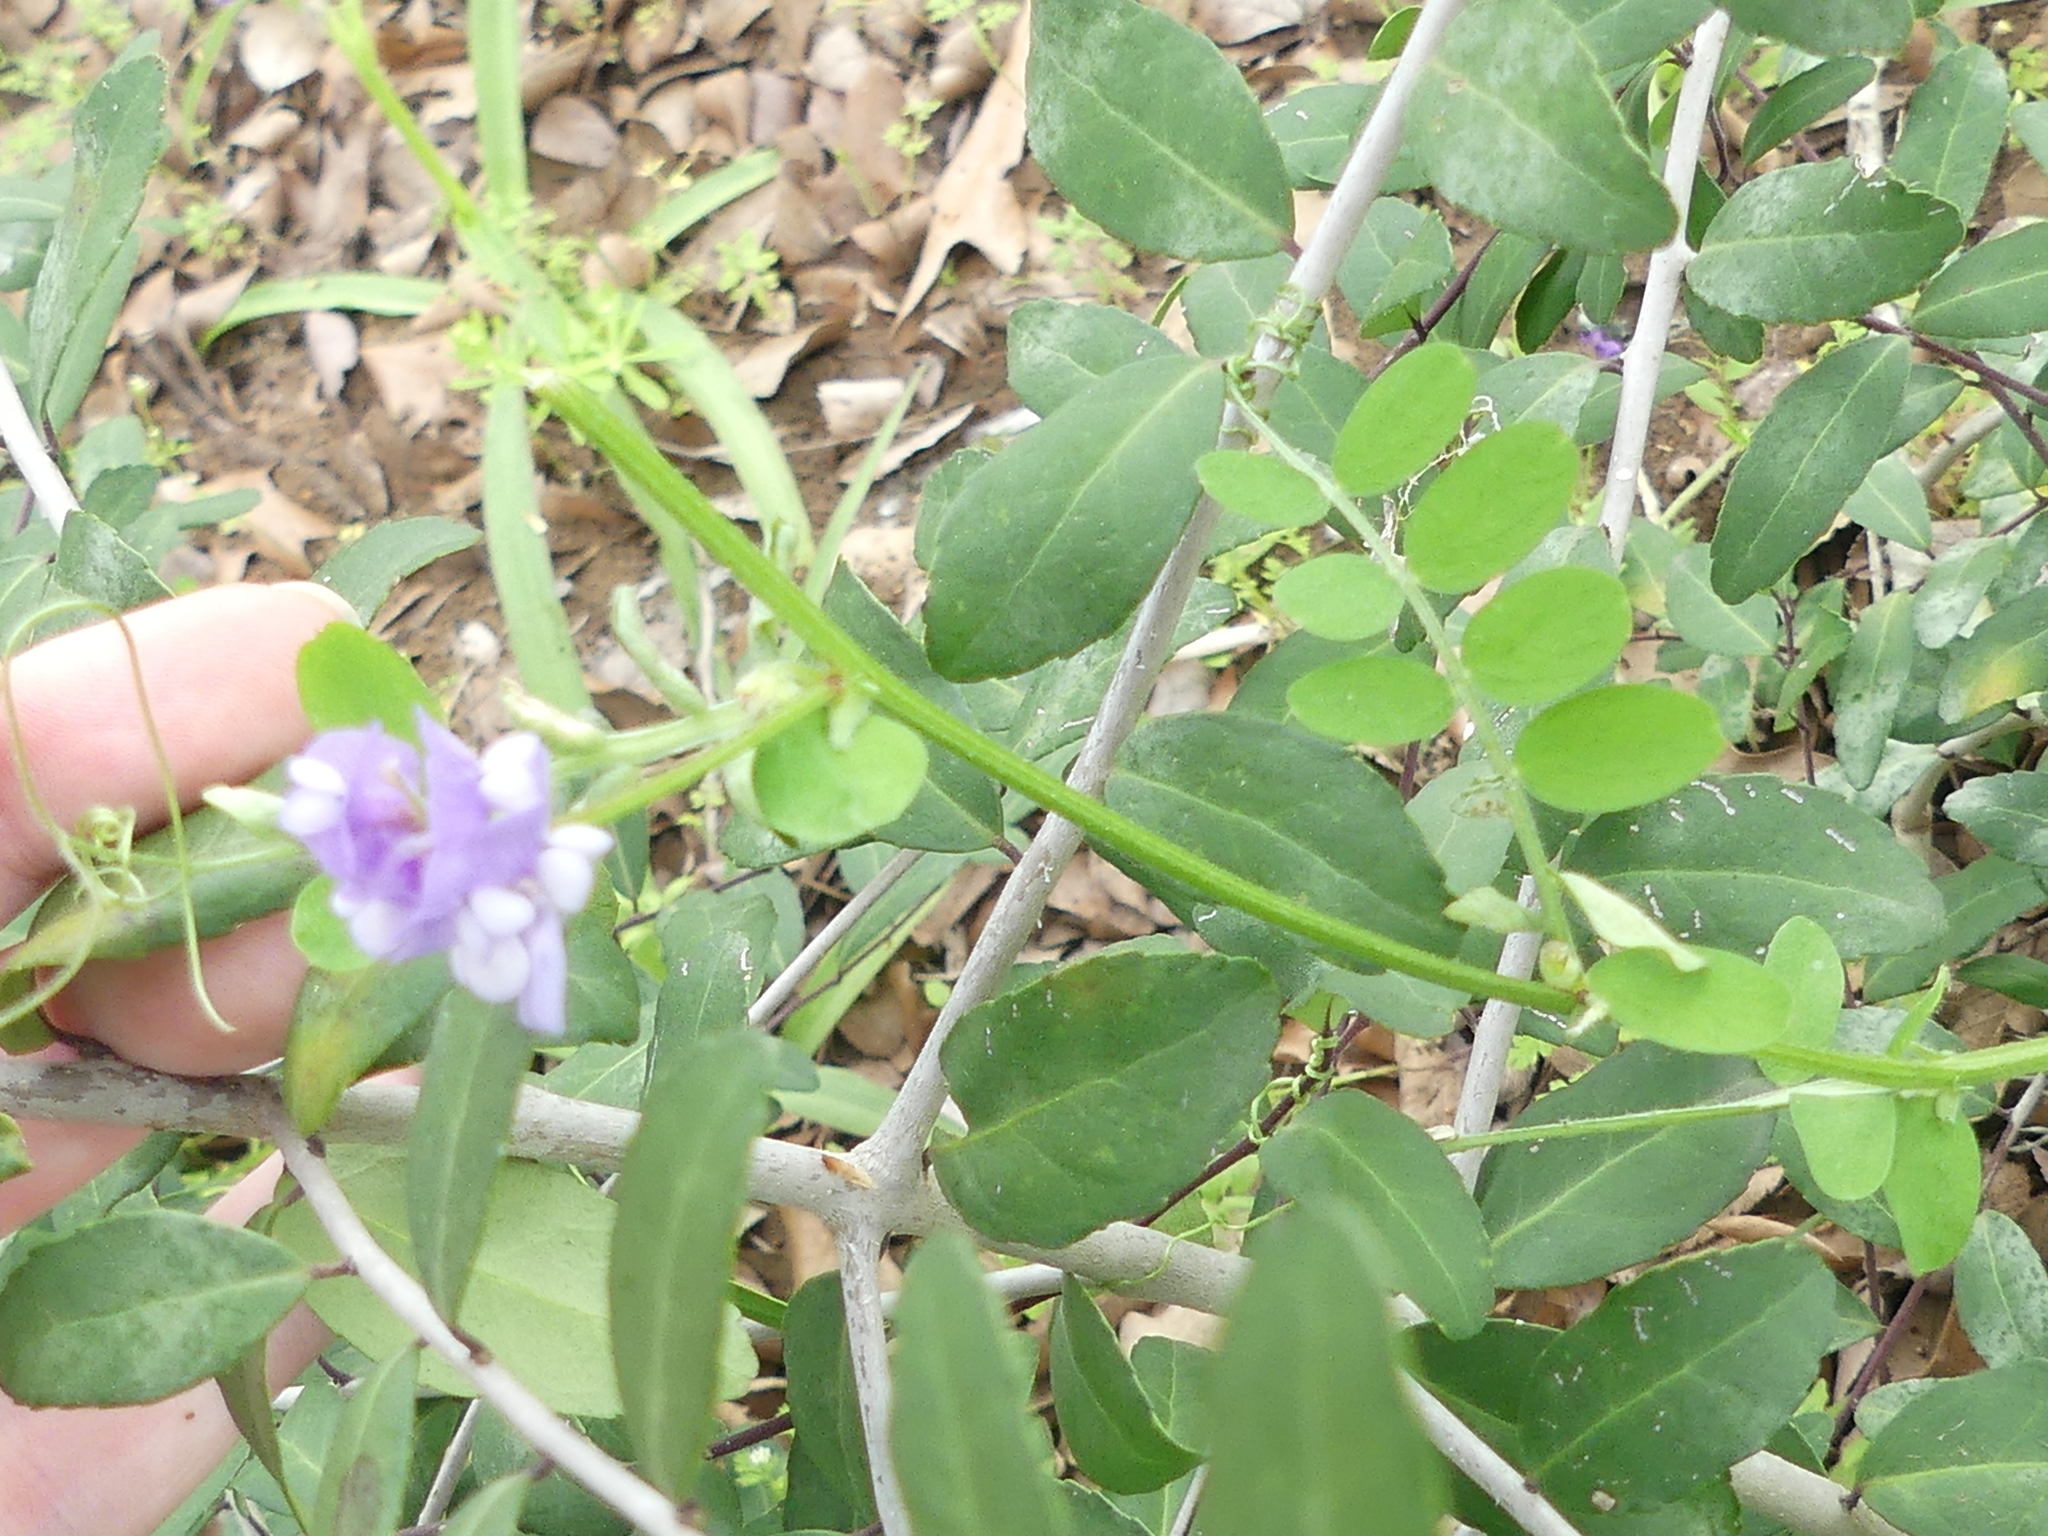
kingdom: Plantae
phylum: Tracheophyta
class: Magnoliopsida
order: Fabales
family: Fabaceae
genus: Vicia
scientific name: Vicia ludoviciana
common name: Louisiana vetch
